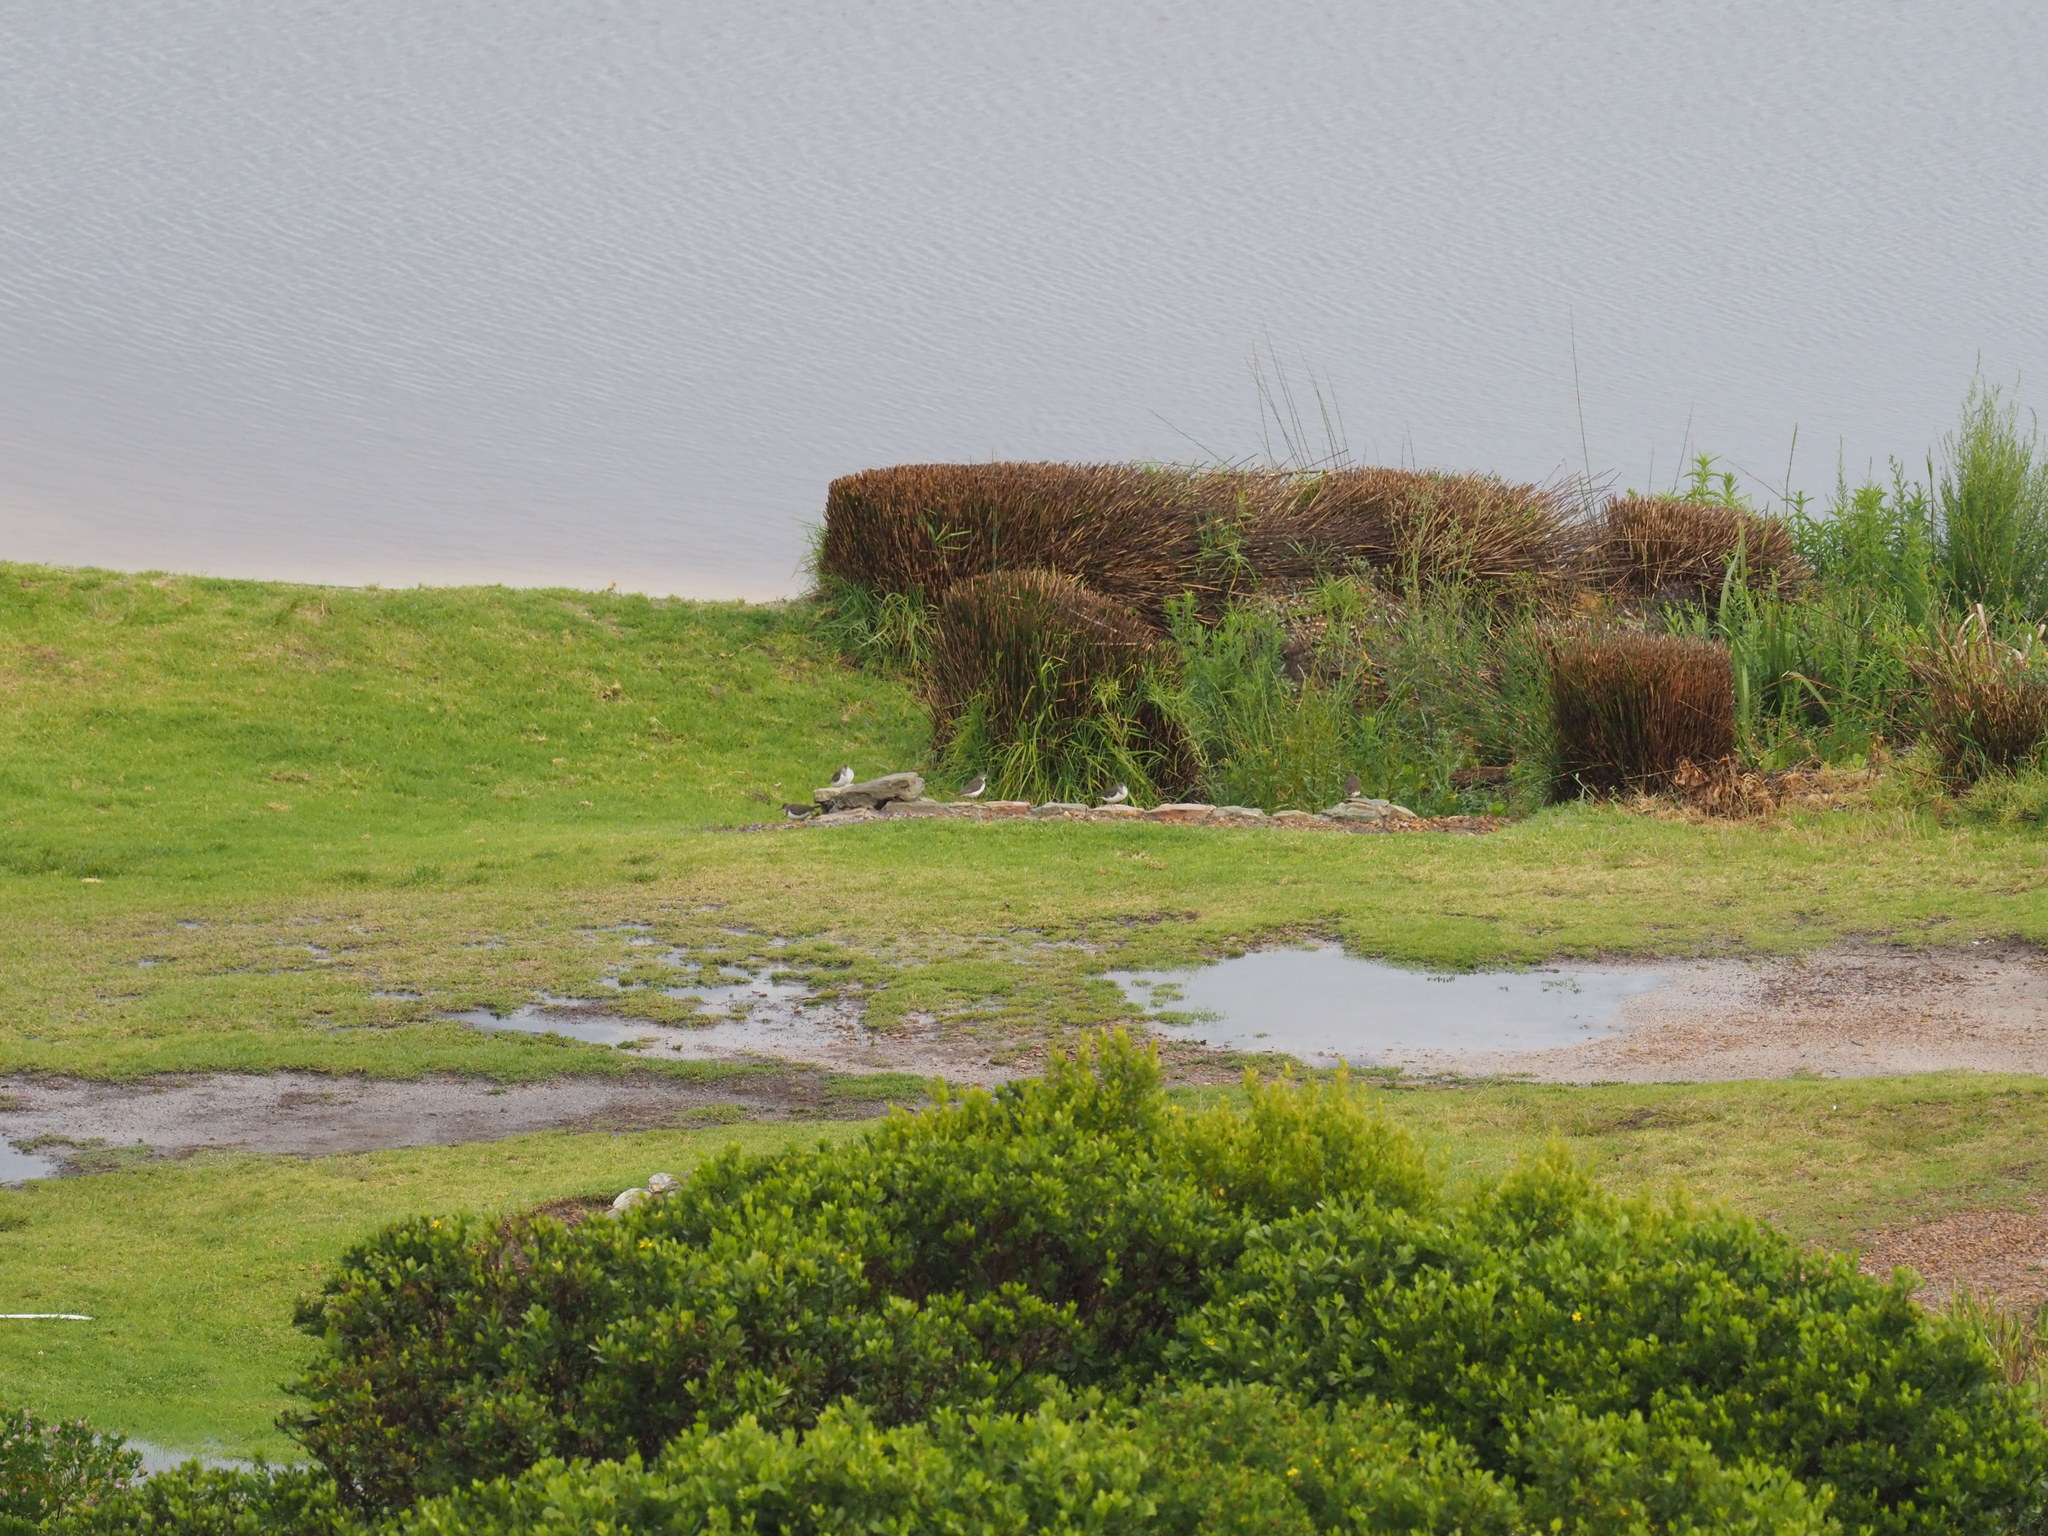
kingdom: Animalia
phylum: Chordata
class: Aves
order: Charadriiformes
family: Scolopacidae
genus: Actitis
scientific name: Actitis hypoleucos
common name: Common sandpiper
